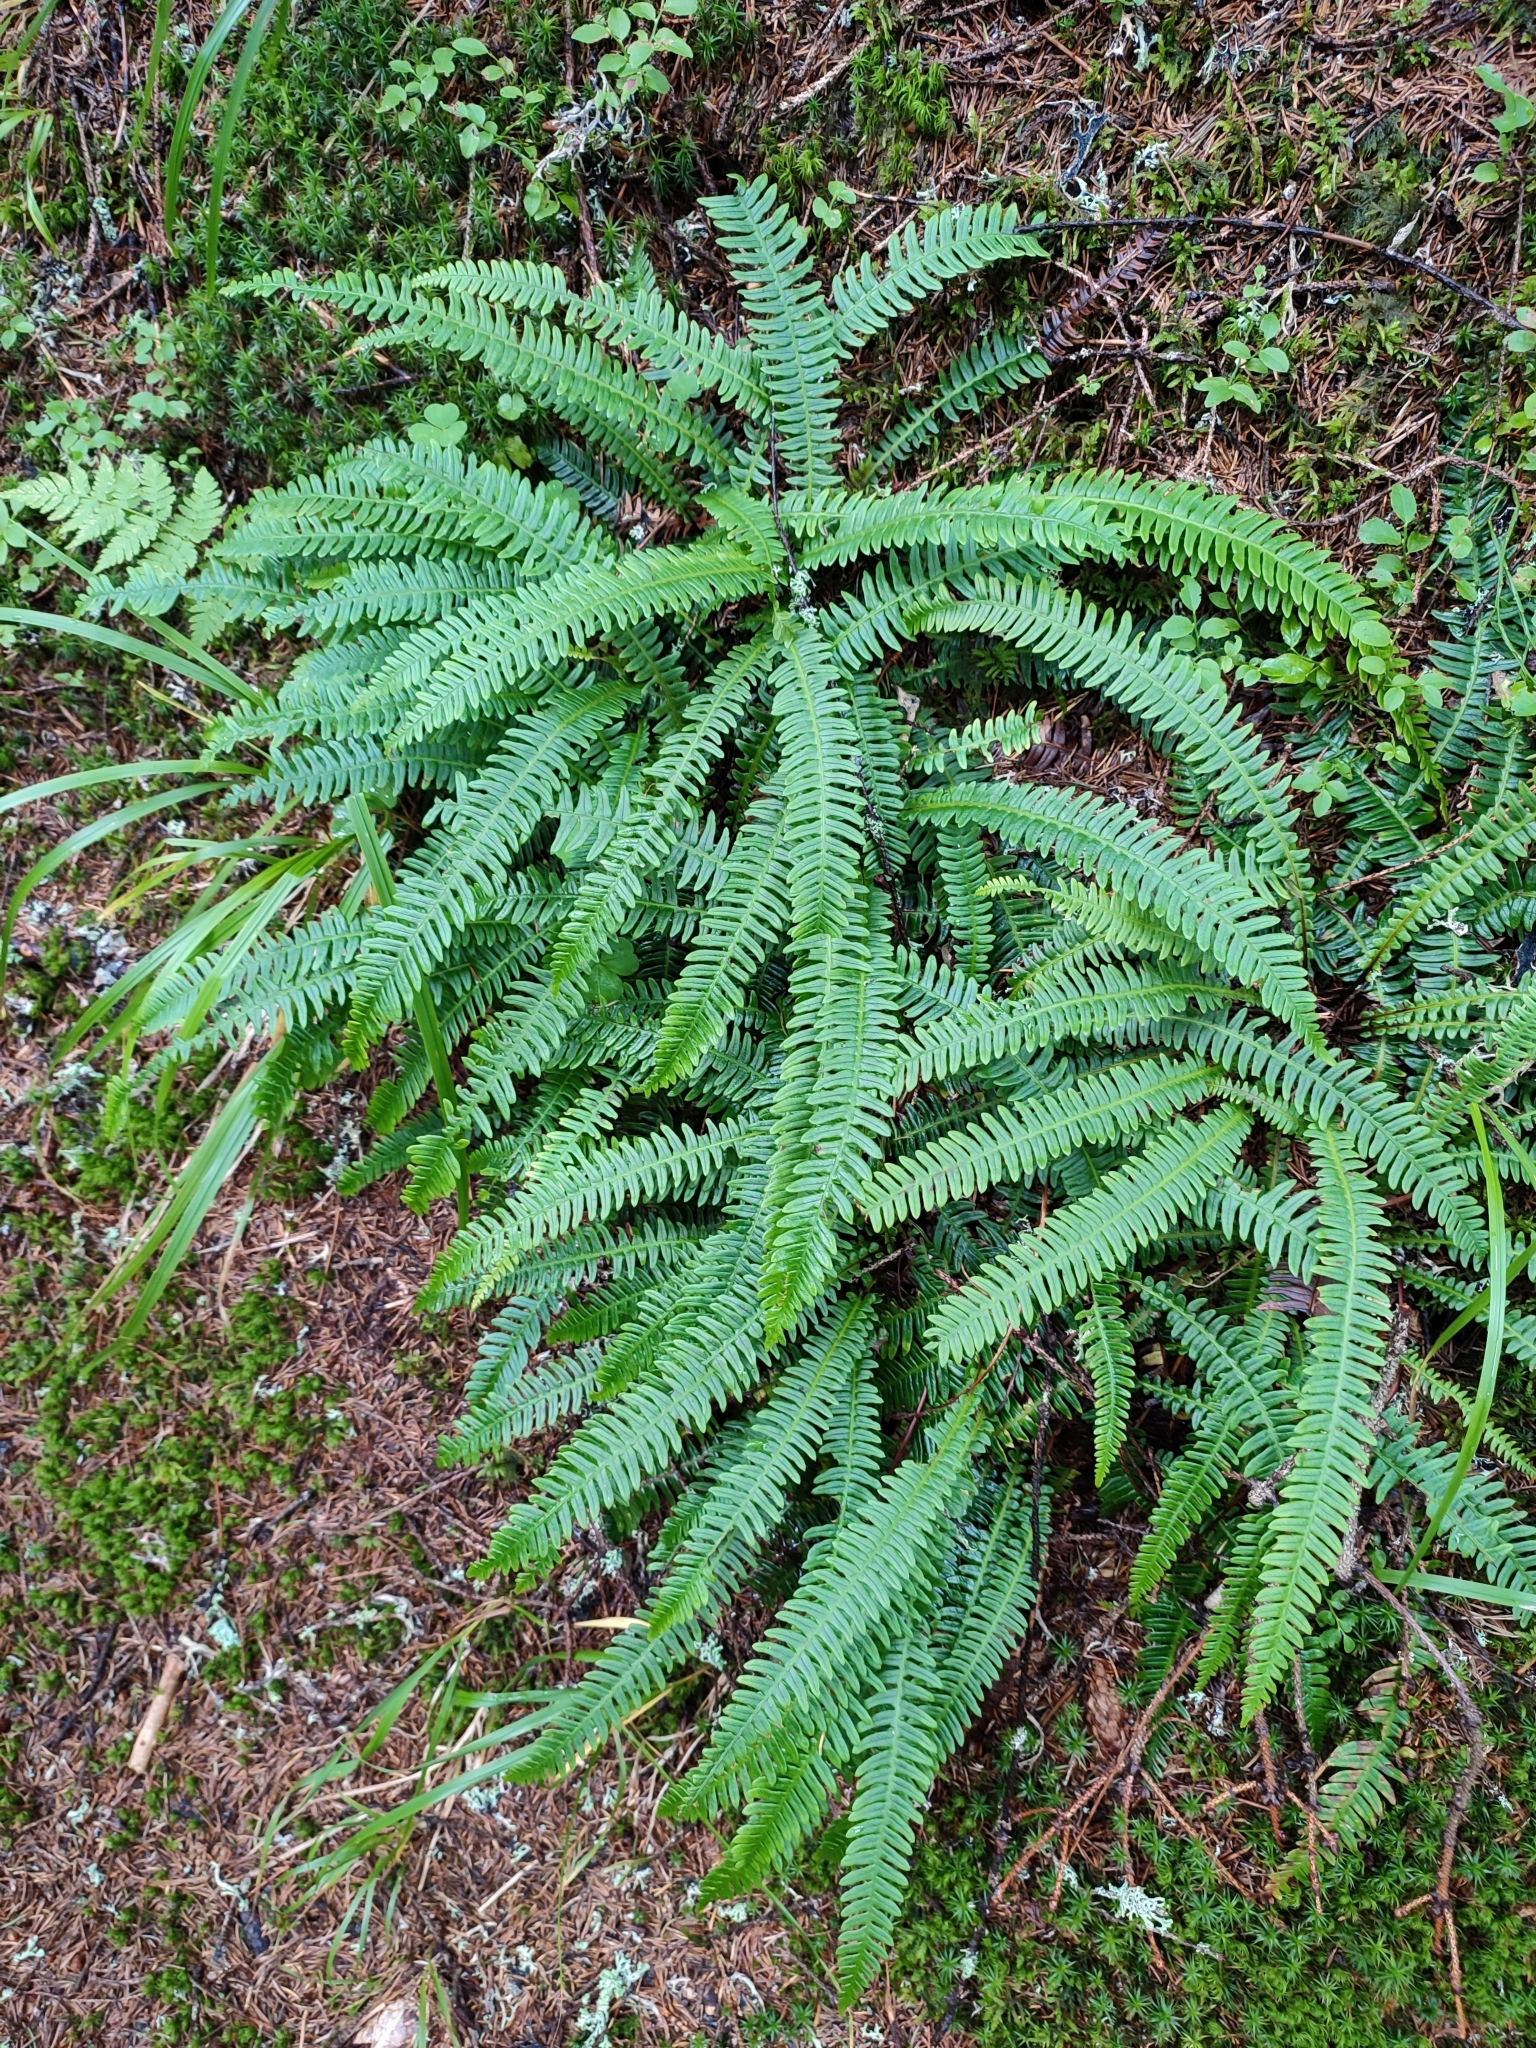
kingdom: Plantae
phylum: Tracheophyta
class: Polypodiopsida
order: Polypodiales
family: Blechnaceae
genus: Struthiopteris
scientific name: Struthiopteris spicant
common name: Deer fern
